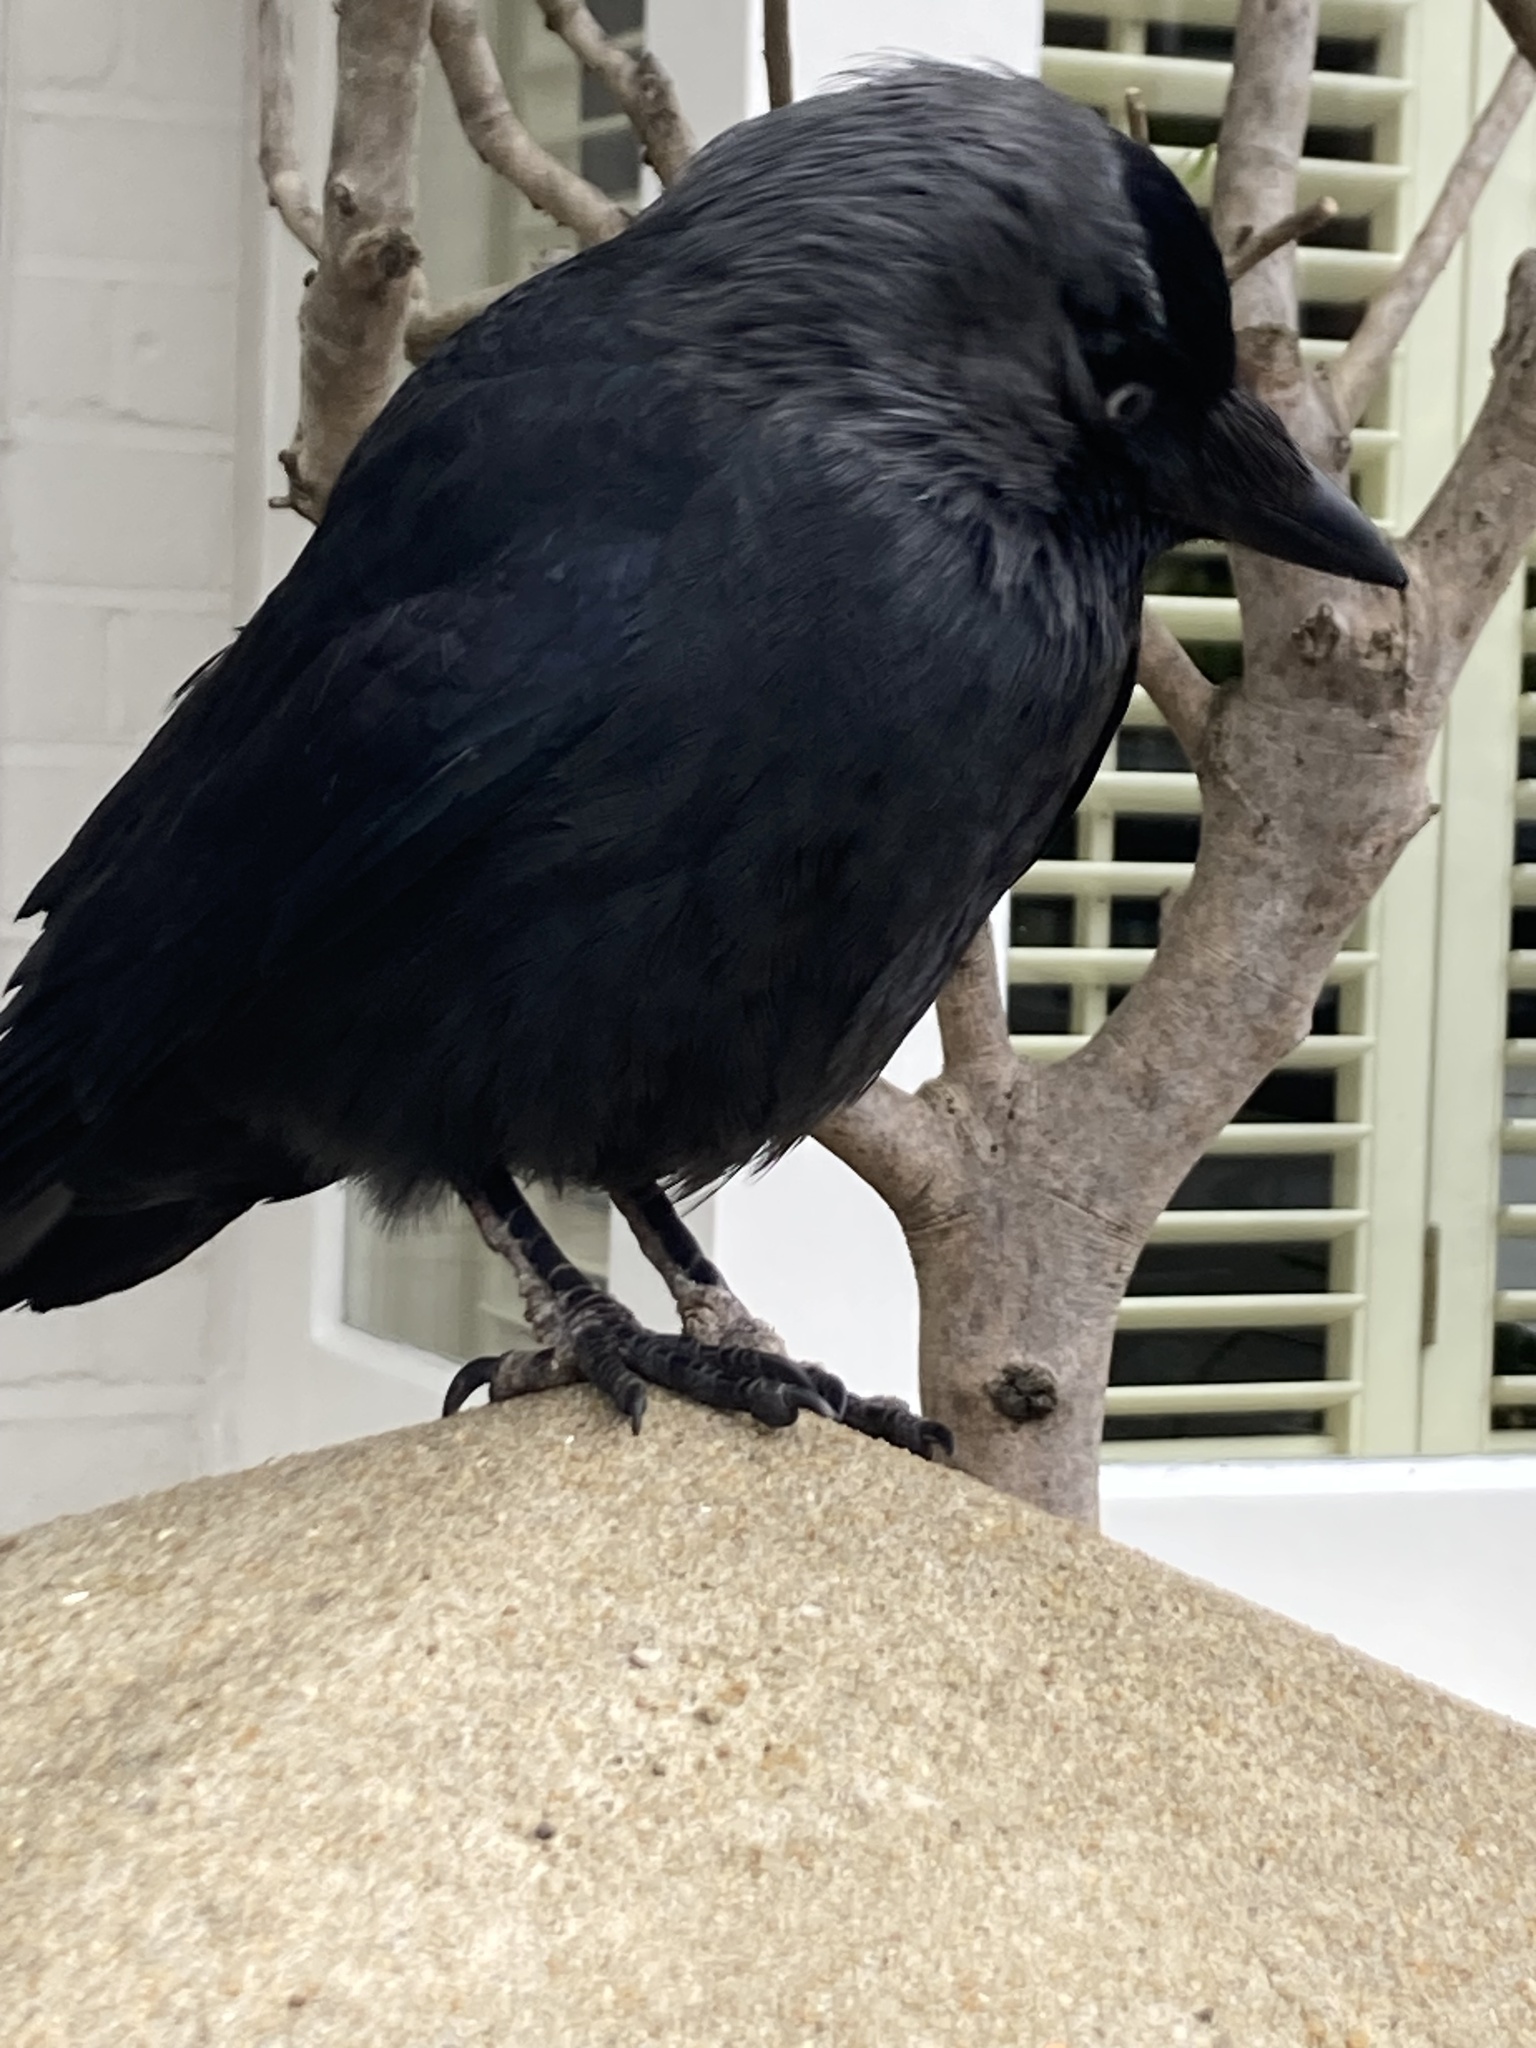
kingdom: Animalia
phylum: Chordata
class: Aves
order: Passeriformes
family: Corvidae
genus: Coloeus
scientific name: Coloeus monedula
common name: Western jackdaw
